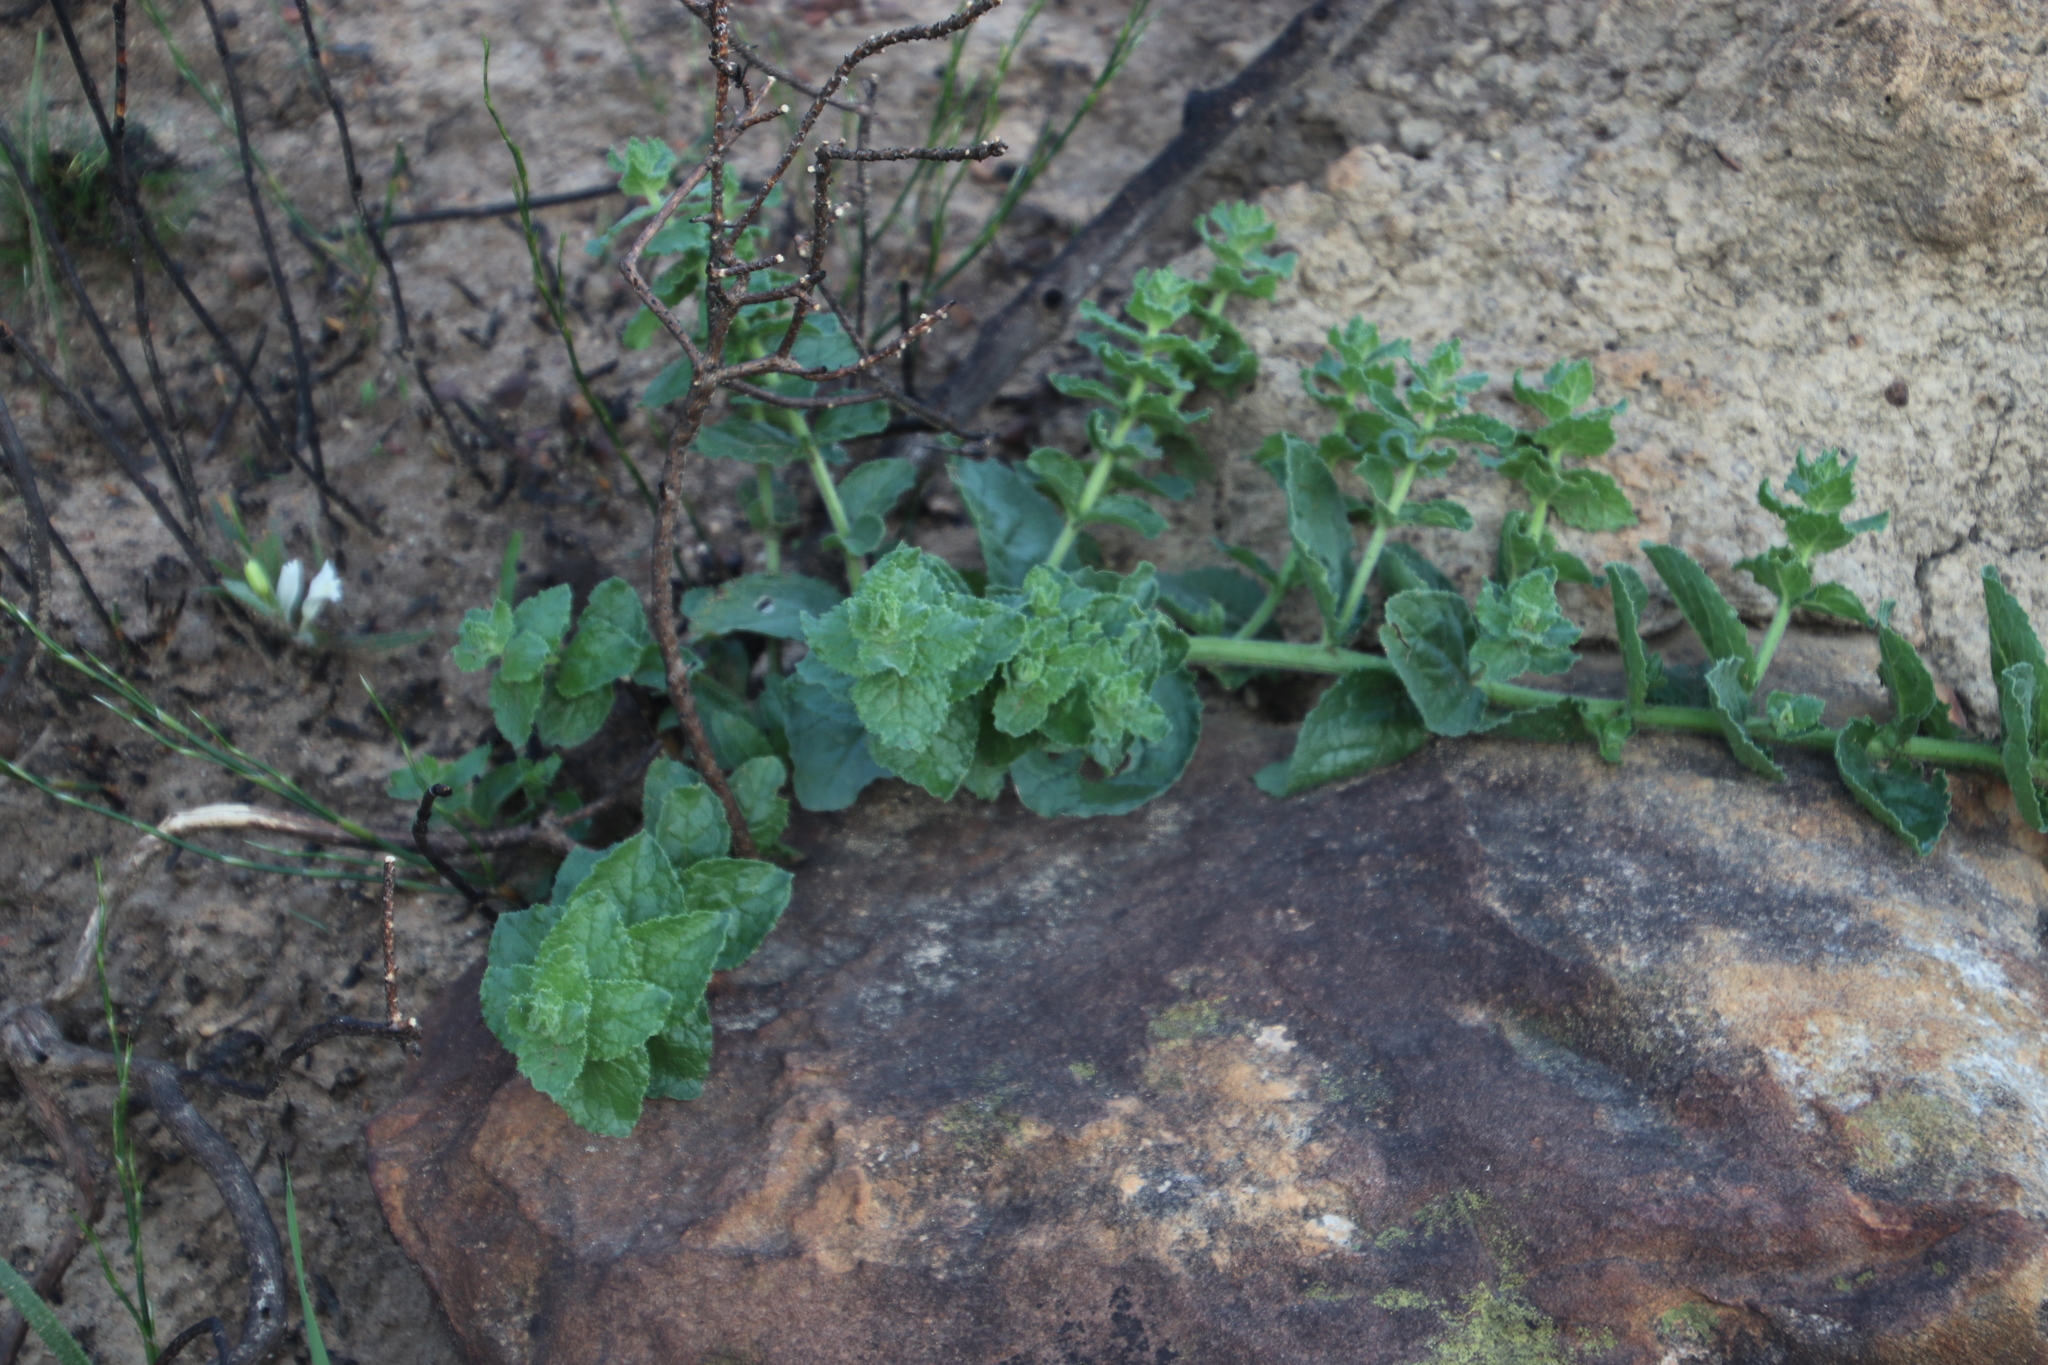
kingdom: Plantae
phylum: Tracheophyta
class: Magnoliopsida
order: Lamiales
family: Scrophulariaceae
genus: Oftia
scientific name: Oftia africana
